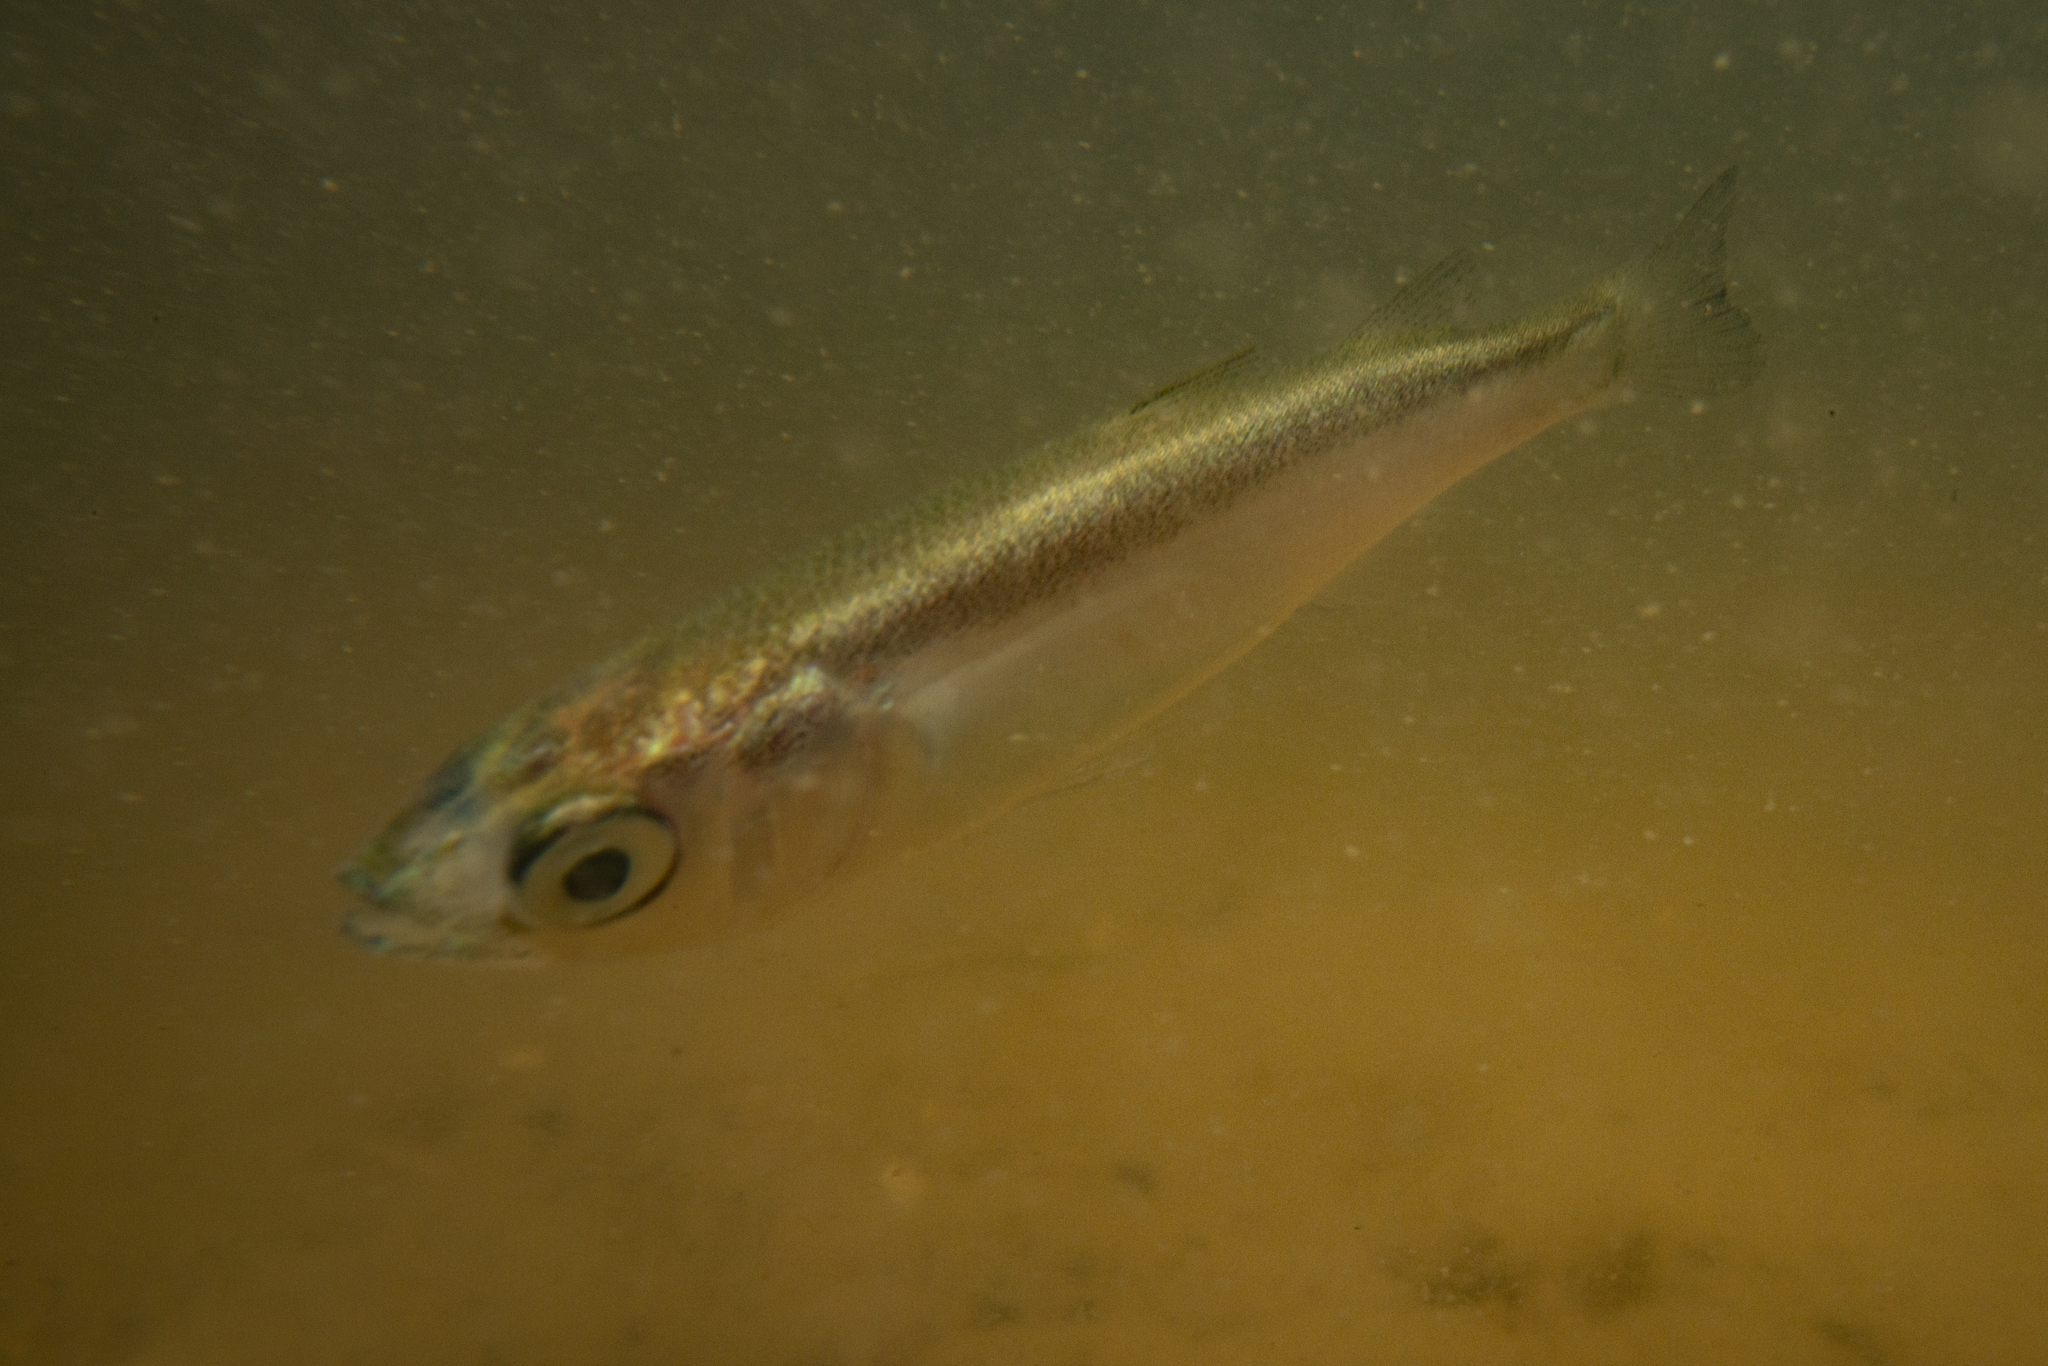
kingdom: Animalia
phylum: Chordata
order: Mugiliformes
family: Mugilidae
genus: Aldrichetta
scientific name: Aldrichetta forsteri
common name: Yellow-eye mullet
